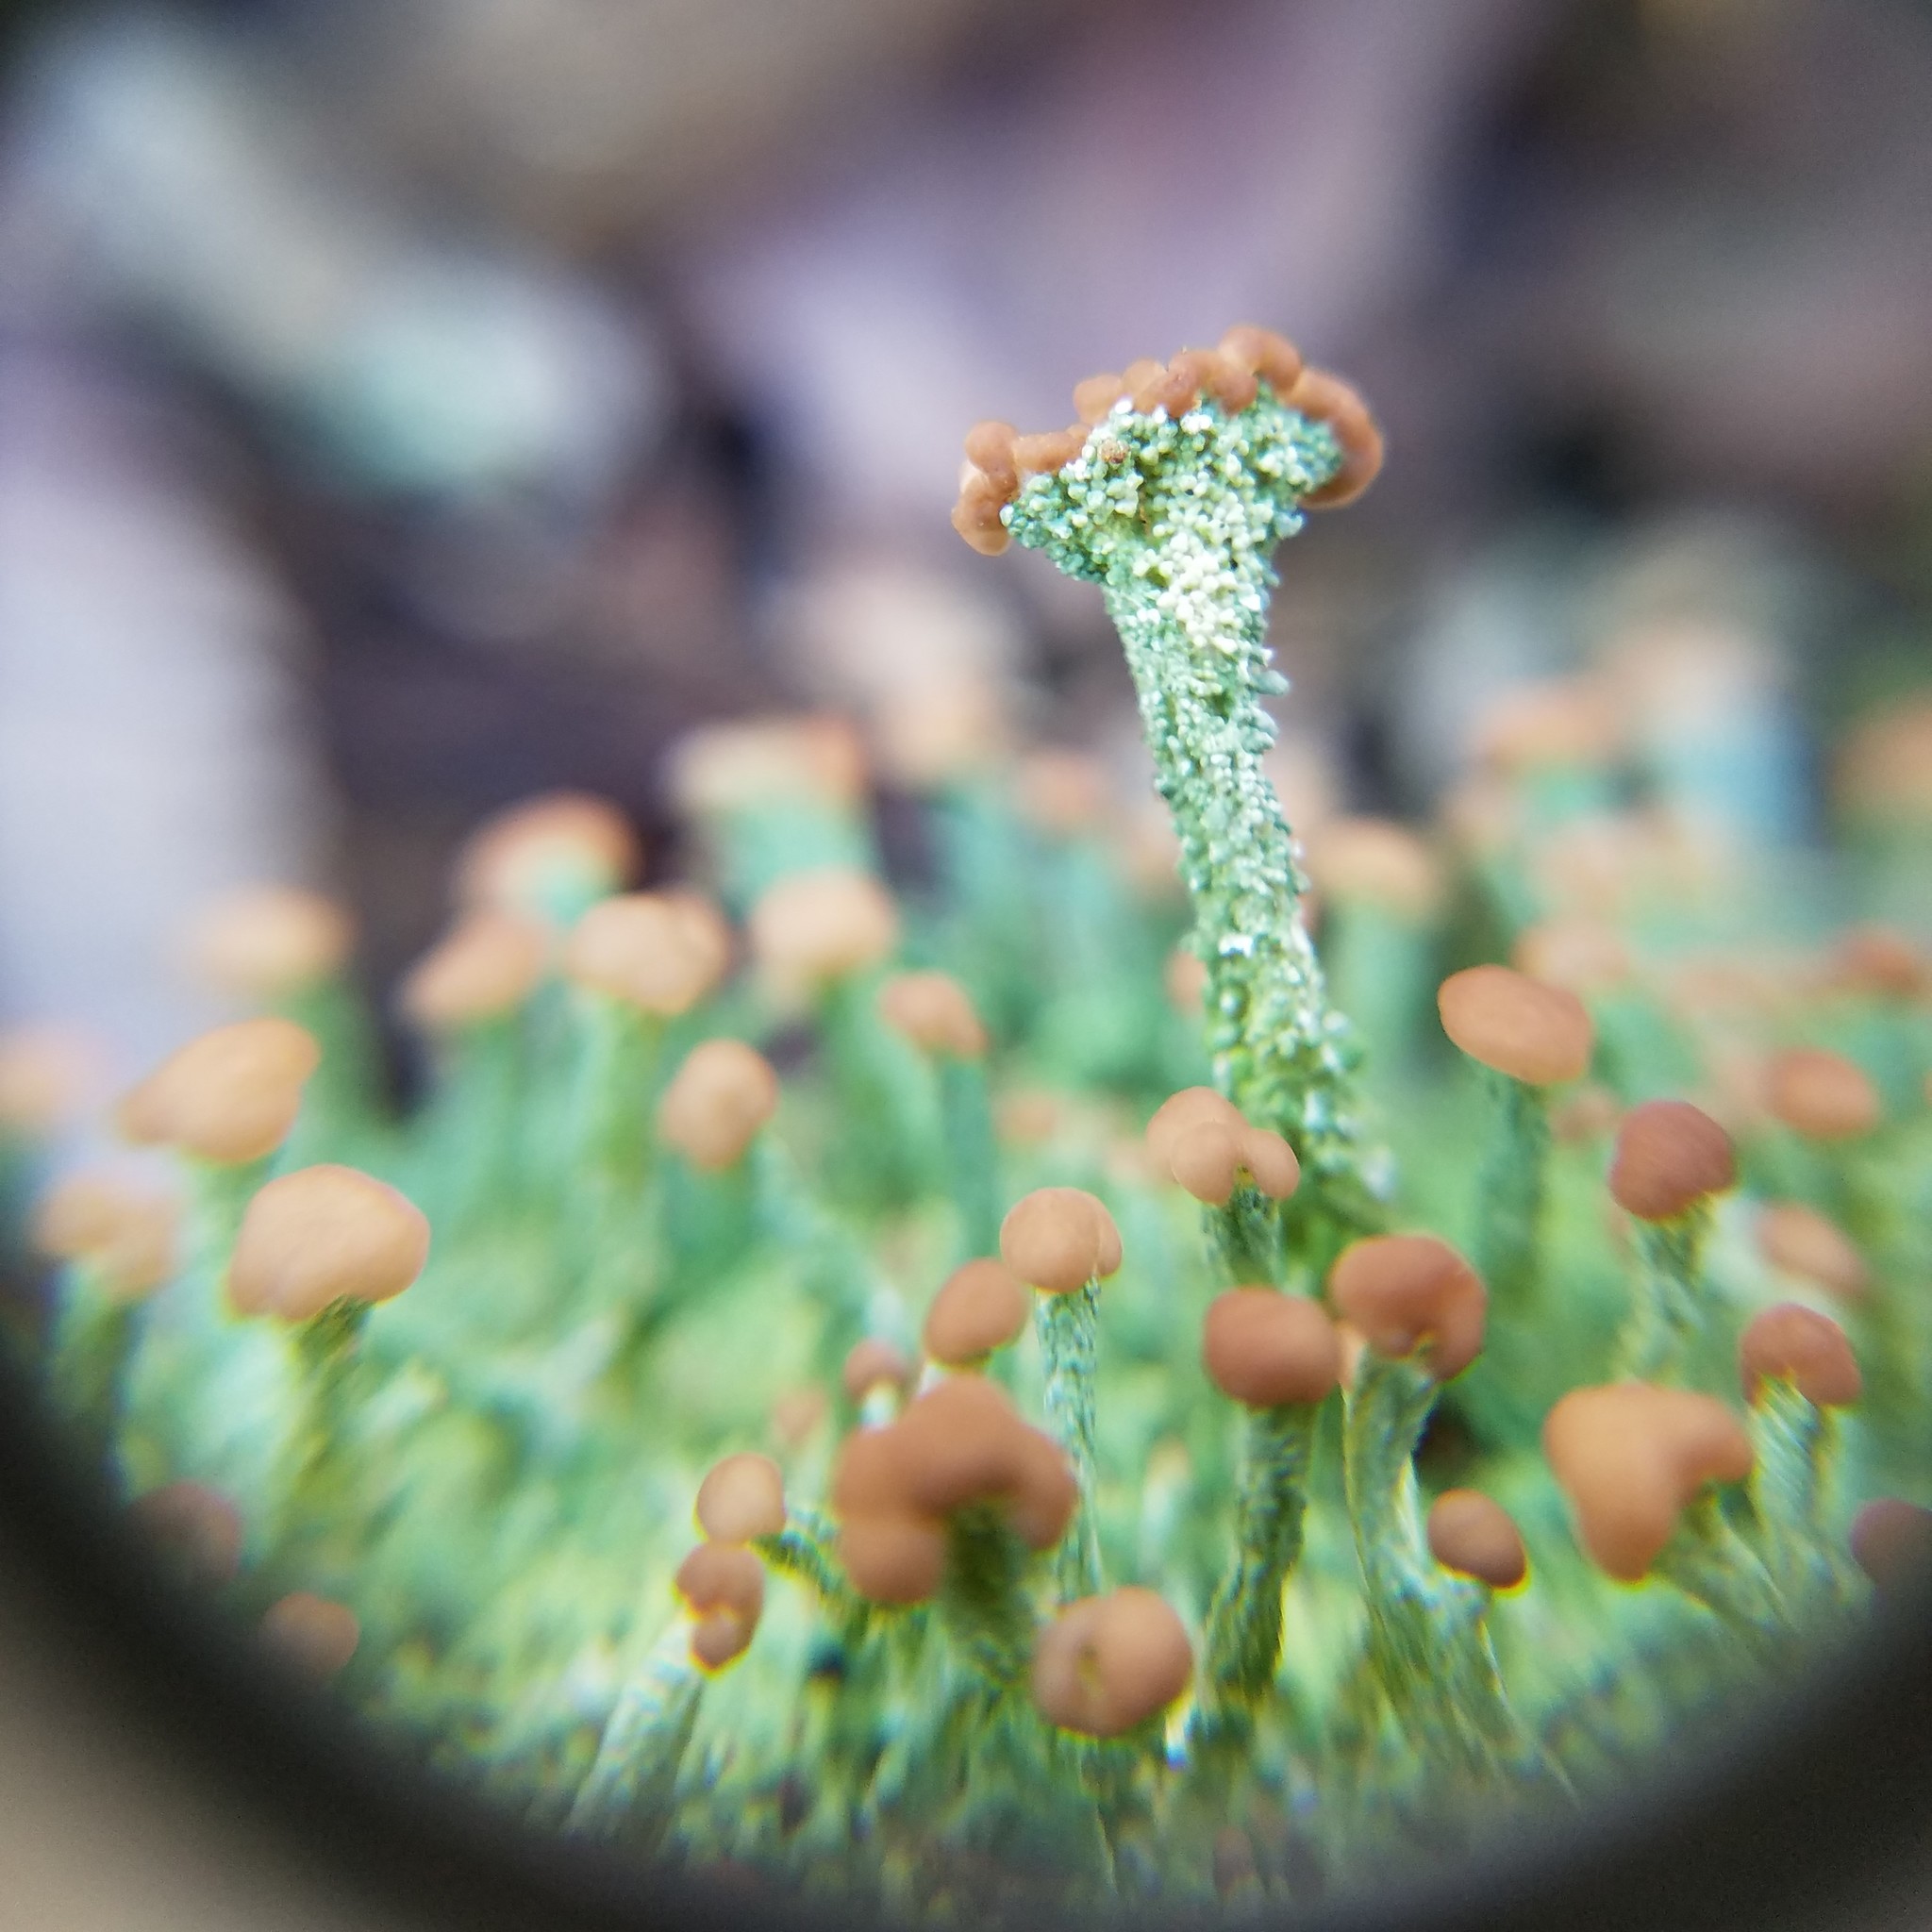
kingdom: Fungi
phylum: Ascomycota
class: Lecanoromycetes
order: Lecanorales
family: Cladoniaceae
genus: Cladonia
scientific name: Cladonia peziziformis
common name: Cup lichen
